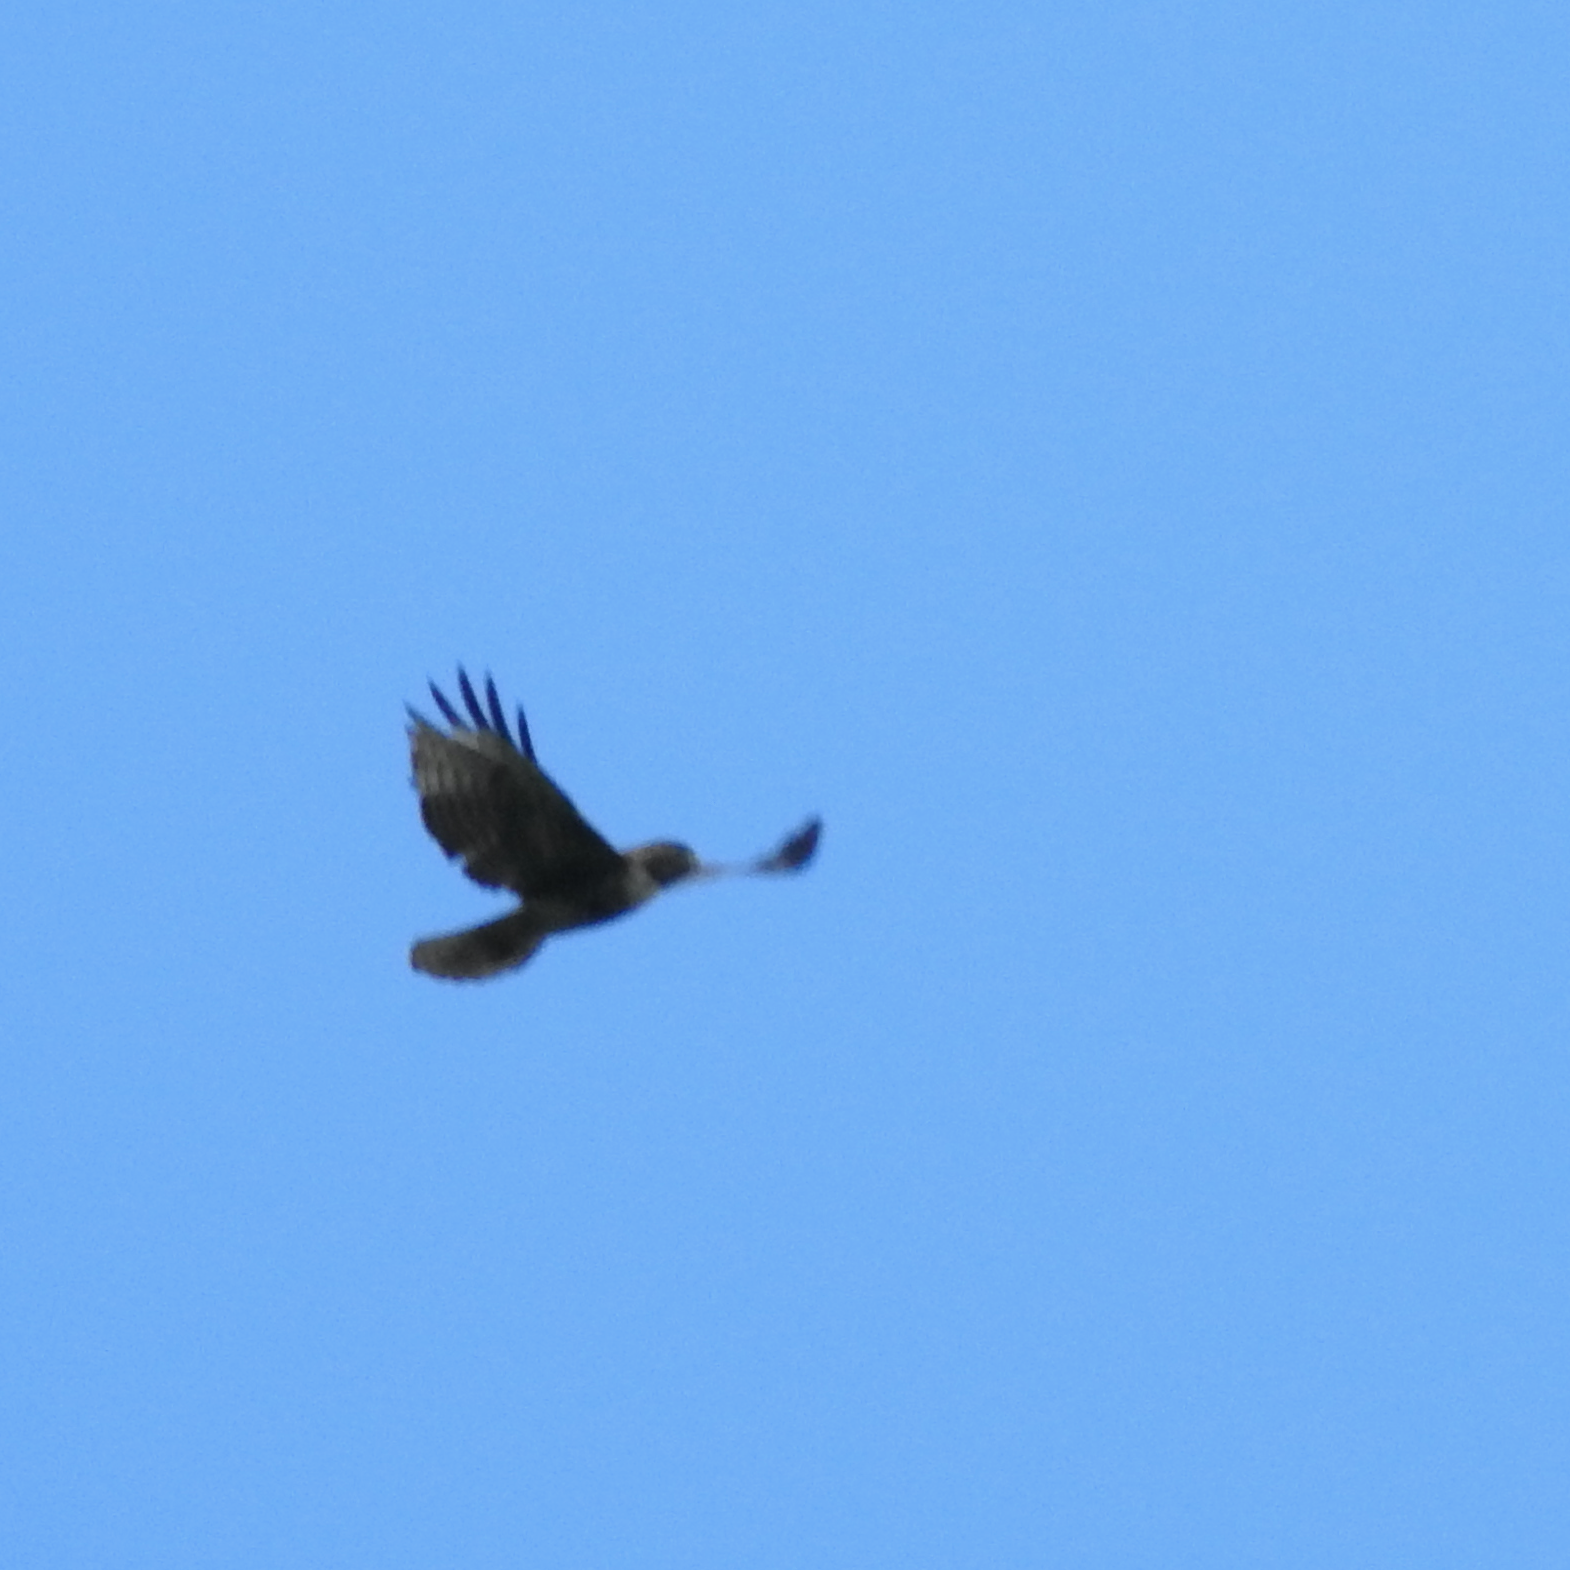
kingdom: Animalia
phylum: Chordata
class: Aves
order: Accipitriformes
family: Accipitridae
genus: Buteo
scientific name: Buteo jamaicensis
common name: Red-tailed hawk
